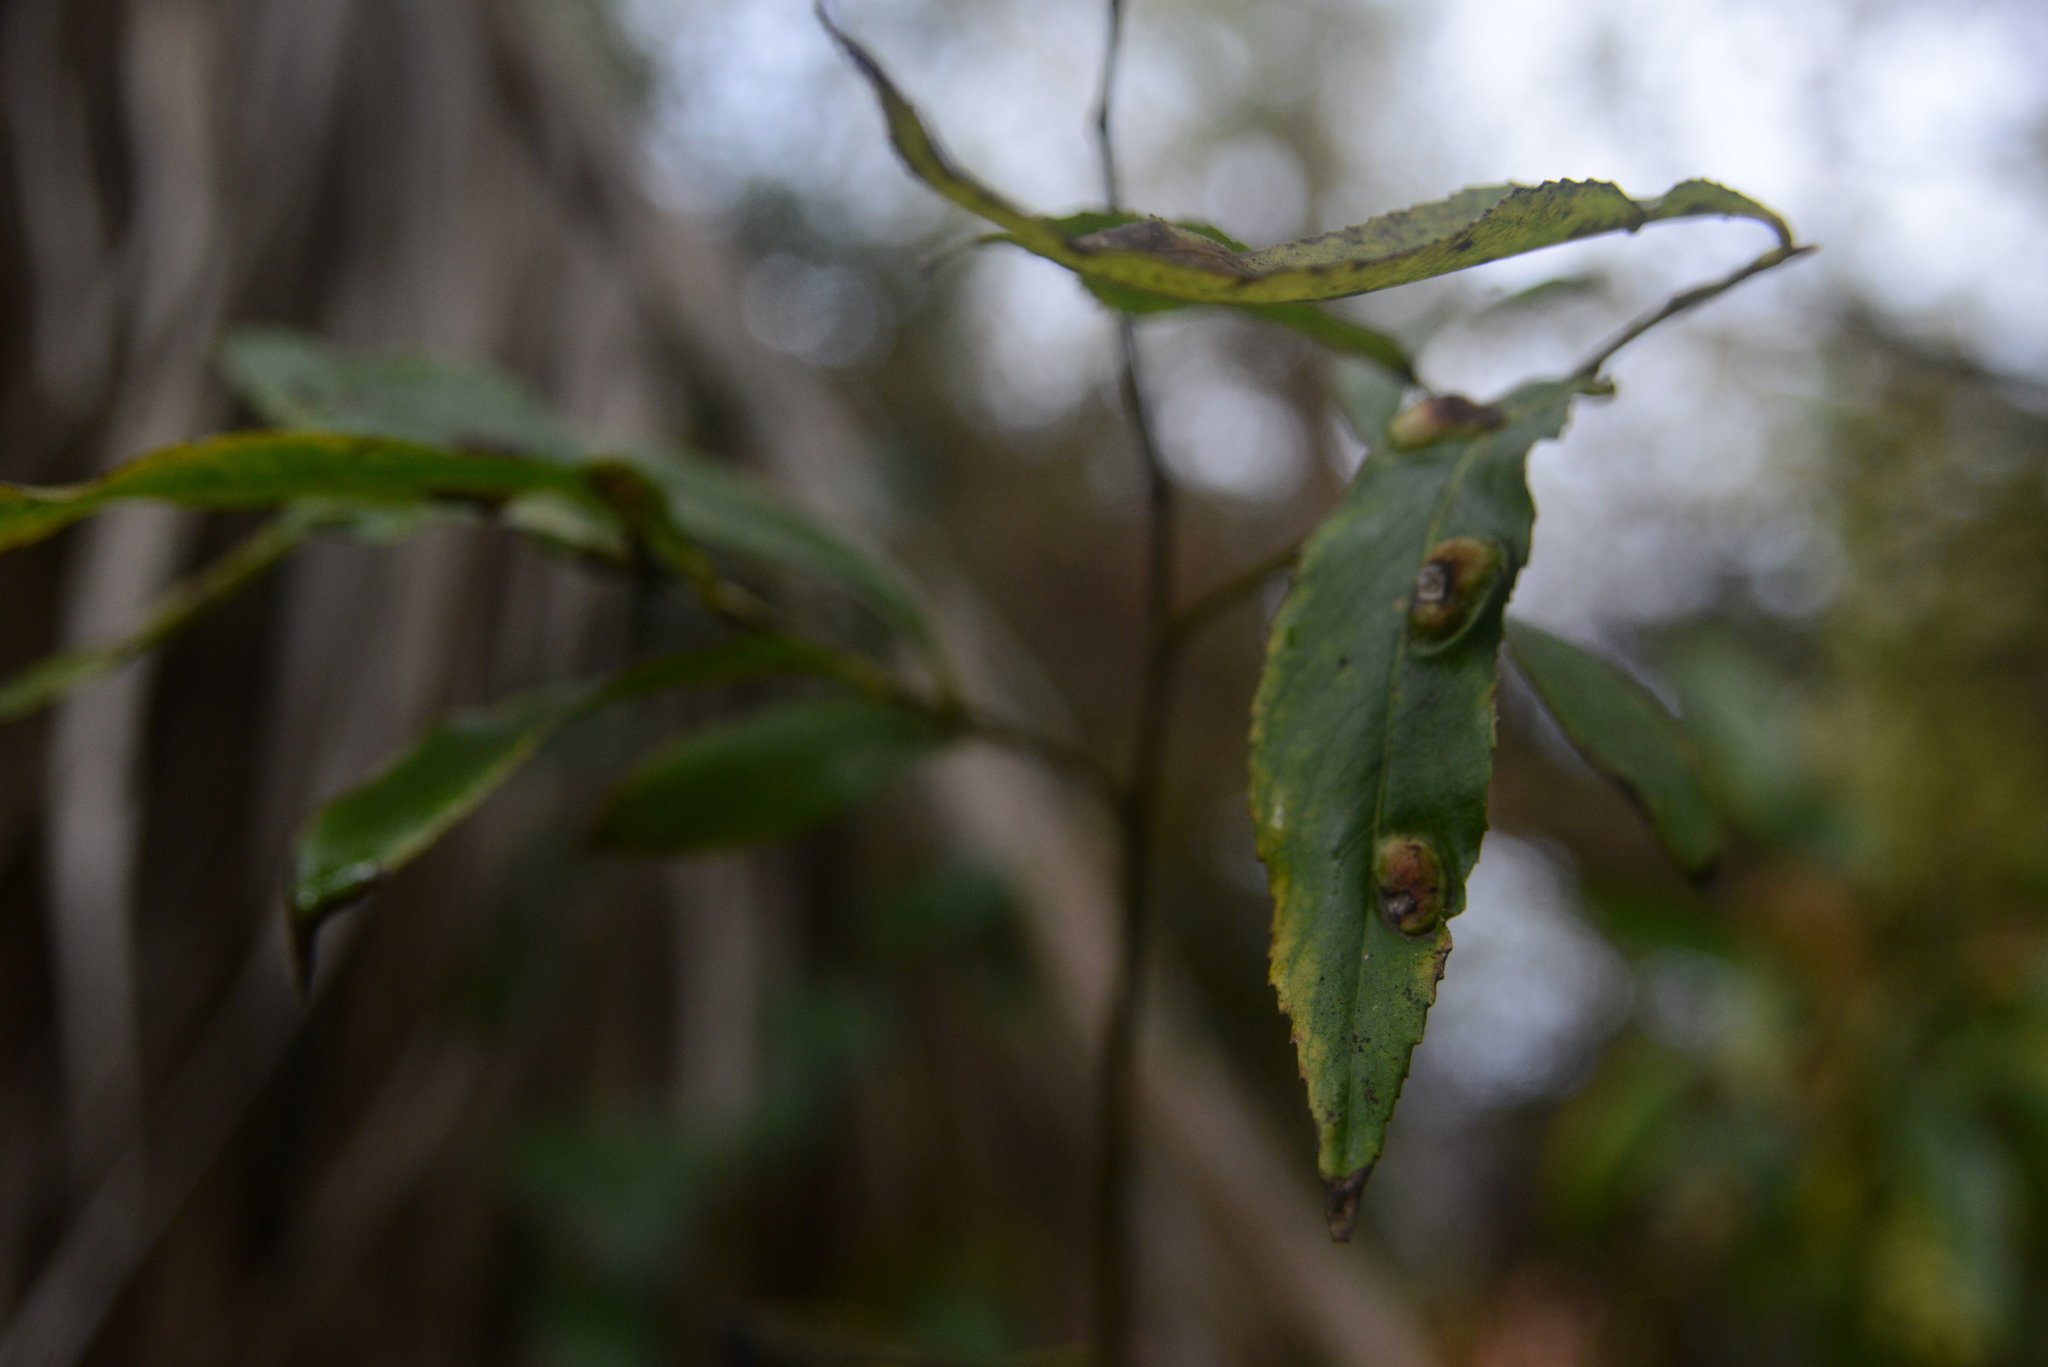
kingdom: Animalia
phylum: Arthropoda
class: Insecta
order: Hymenoptera
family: Tenthredinidae
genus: Pontania
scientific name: Pontania proxima
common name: Common sawfly
